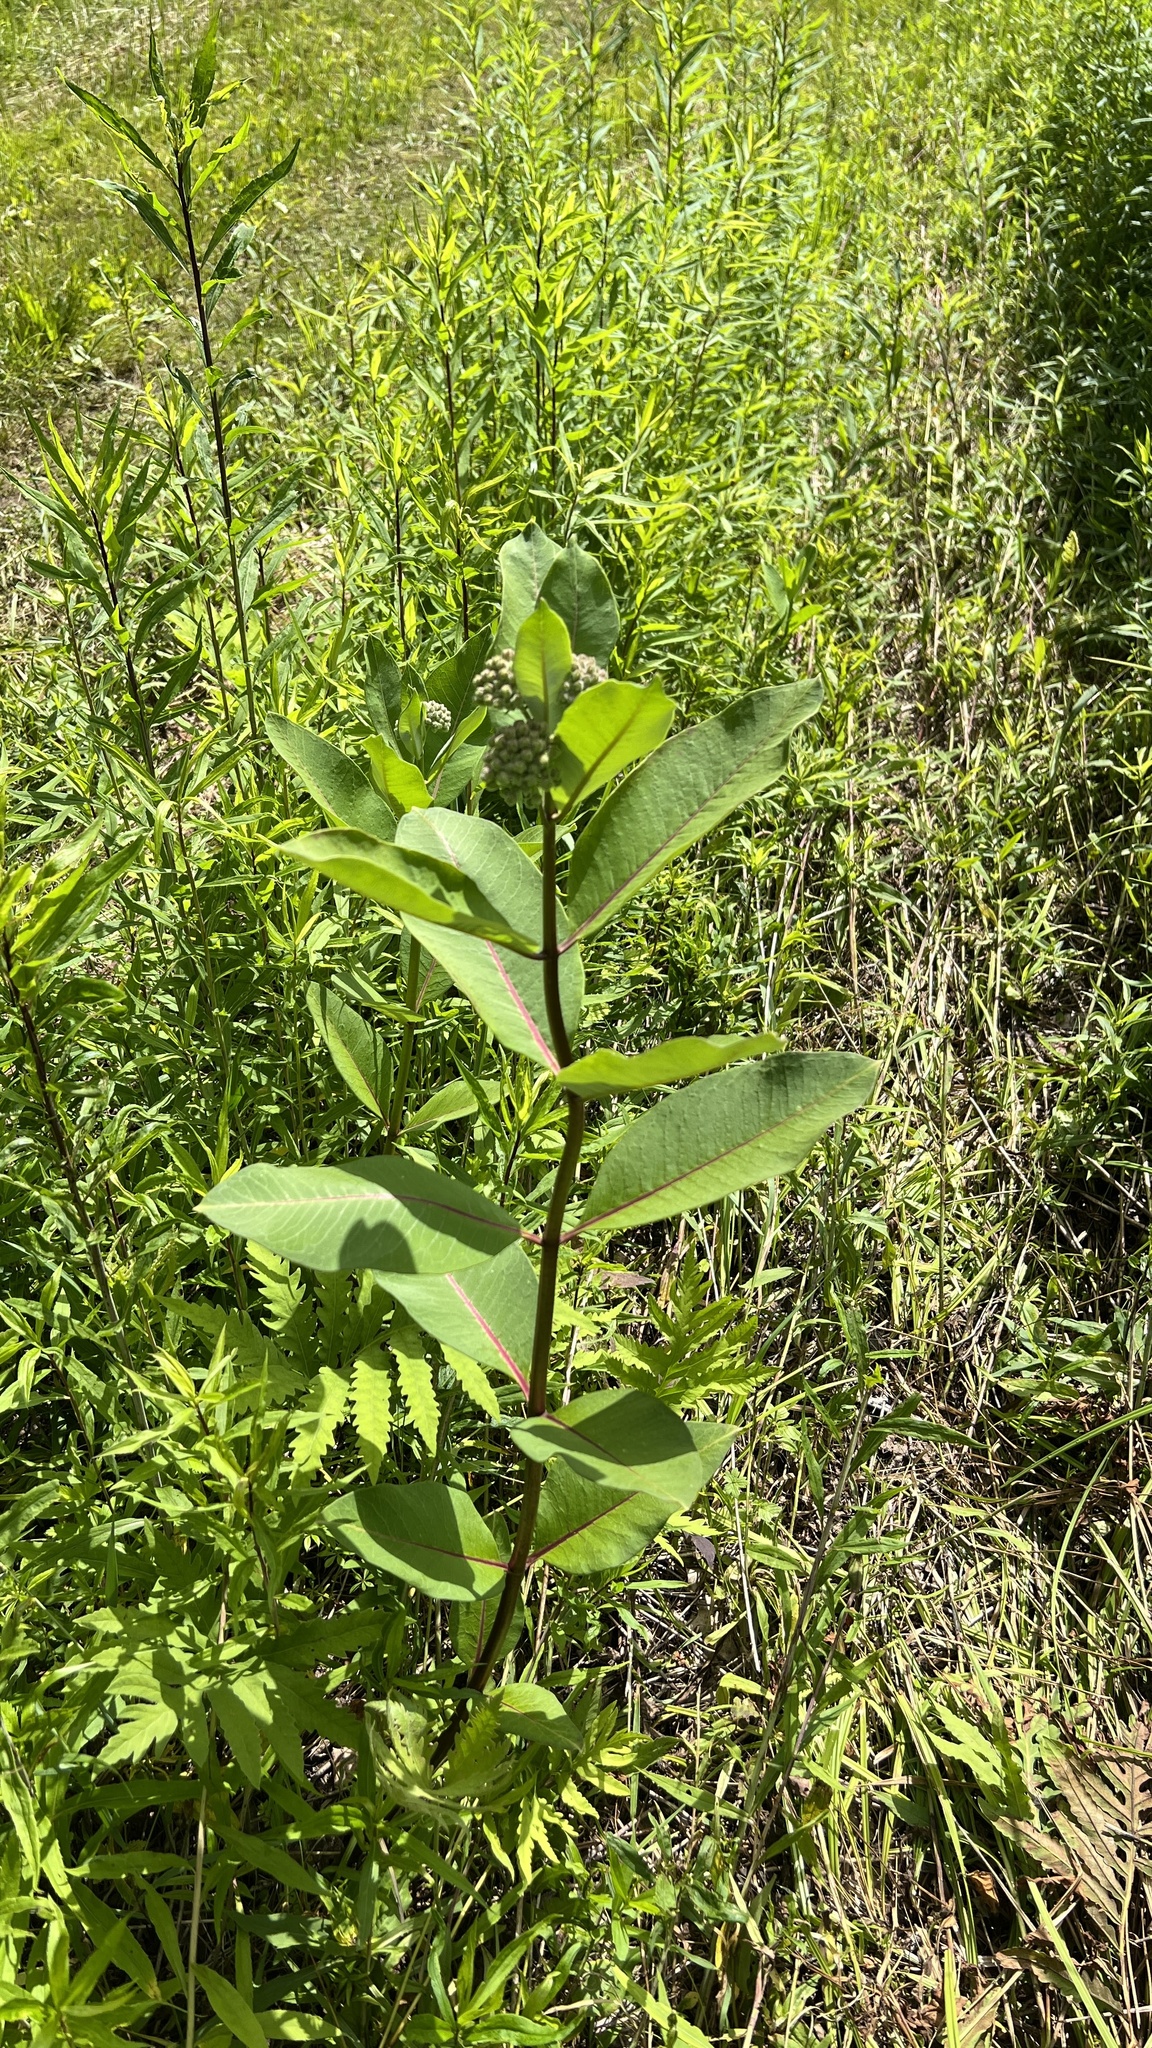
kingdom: Plantae
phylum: Tracheophyta
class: Magnoliopsida
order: Gentianales
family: Apocynaceae
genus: Asclepias
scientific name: Asclepias syriaca
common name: Common milkweed
